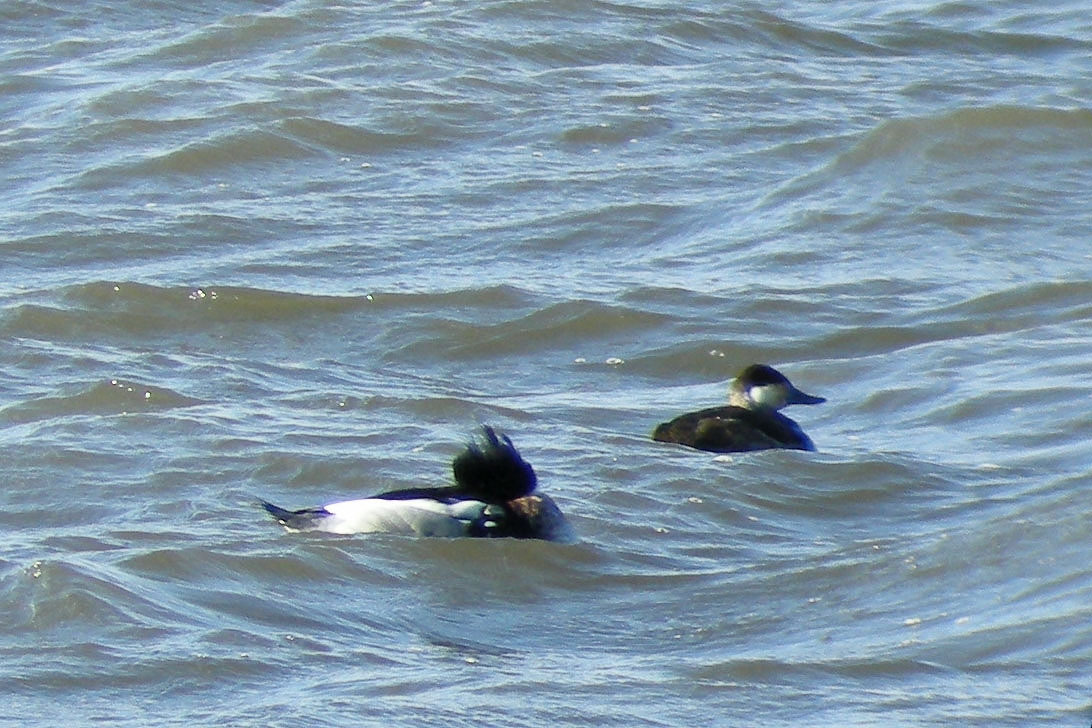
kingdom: Animalia
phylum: Chordata
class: Aves
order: Anseriformes
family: Anatidae
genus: Mergus
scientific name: Mergus serrator
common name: Red-breasted merganser
